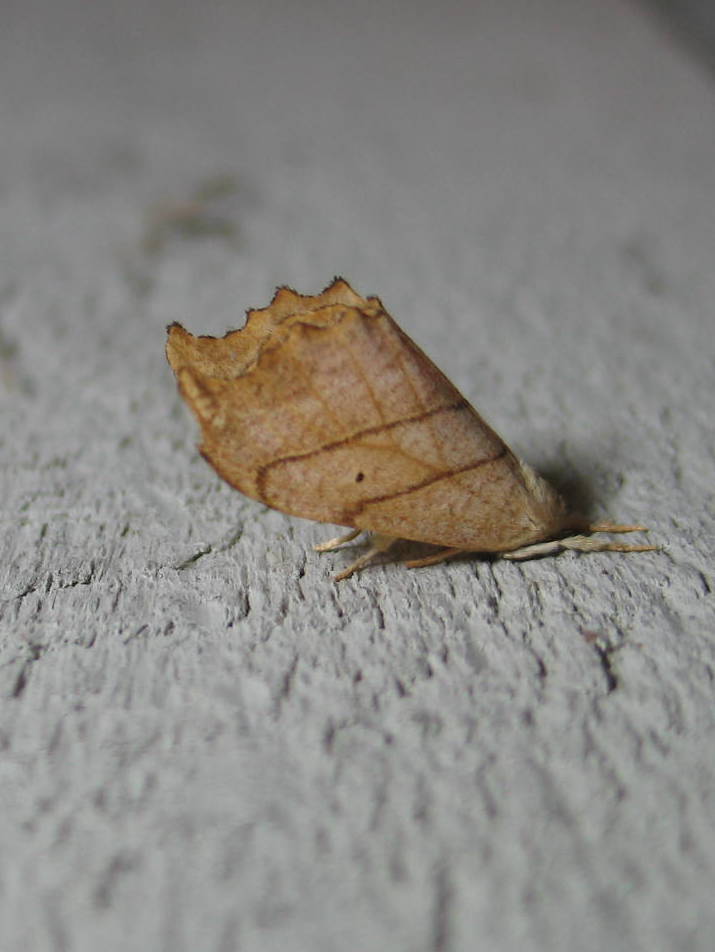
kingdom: Animalia
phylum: Arthropoda
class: Insecta
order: Lepidoptera
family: Drepanidae
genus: Falcaria
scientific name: Falcaria bilineata
